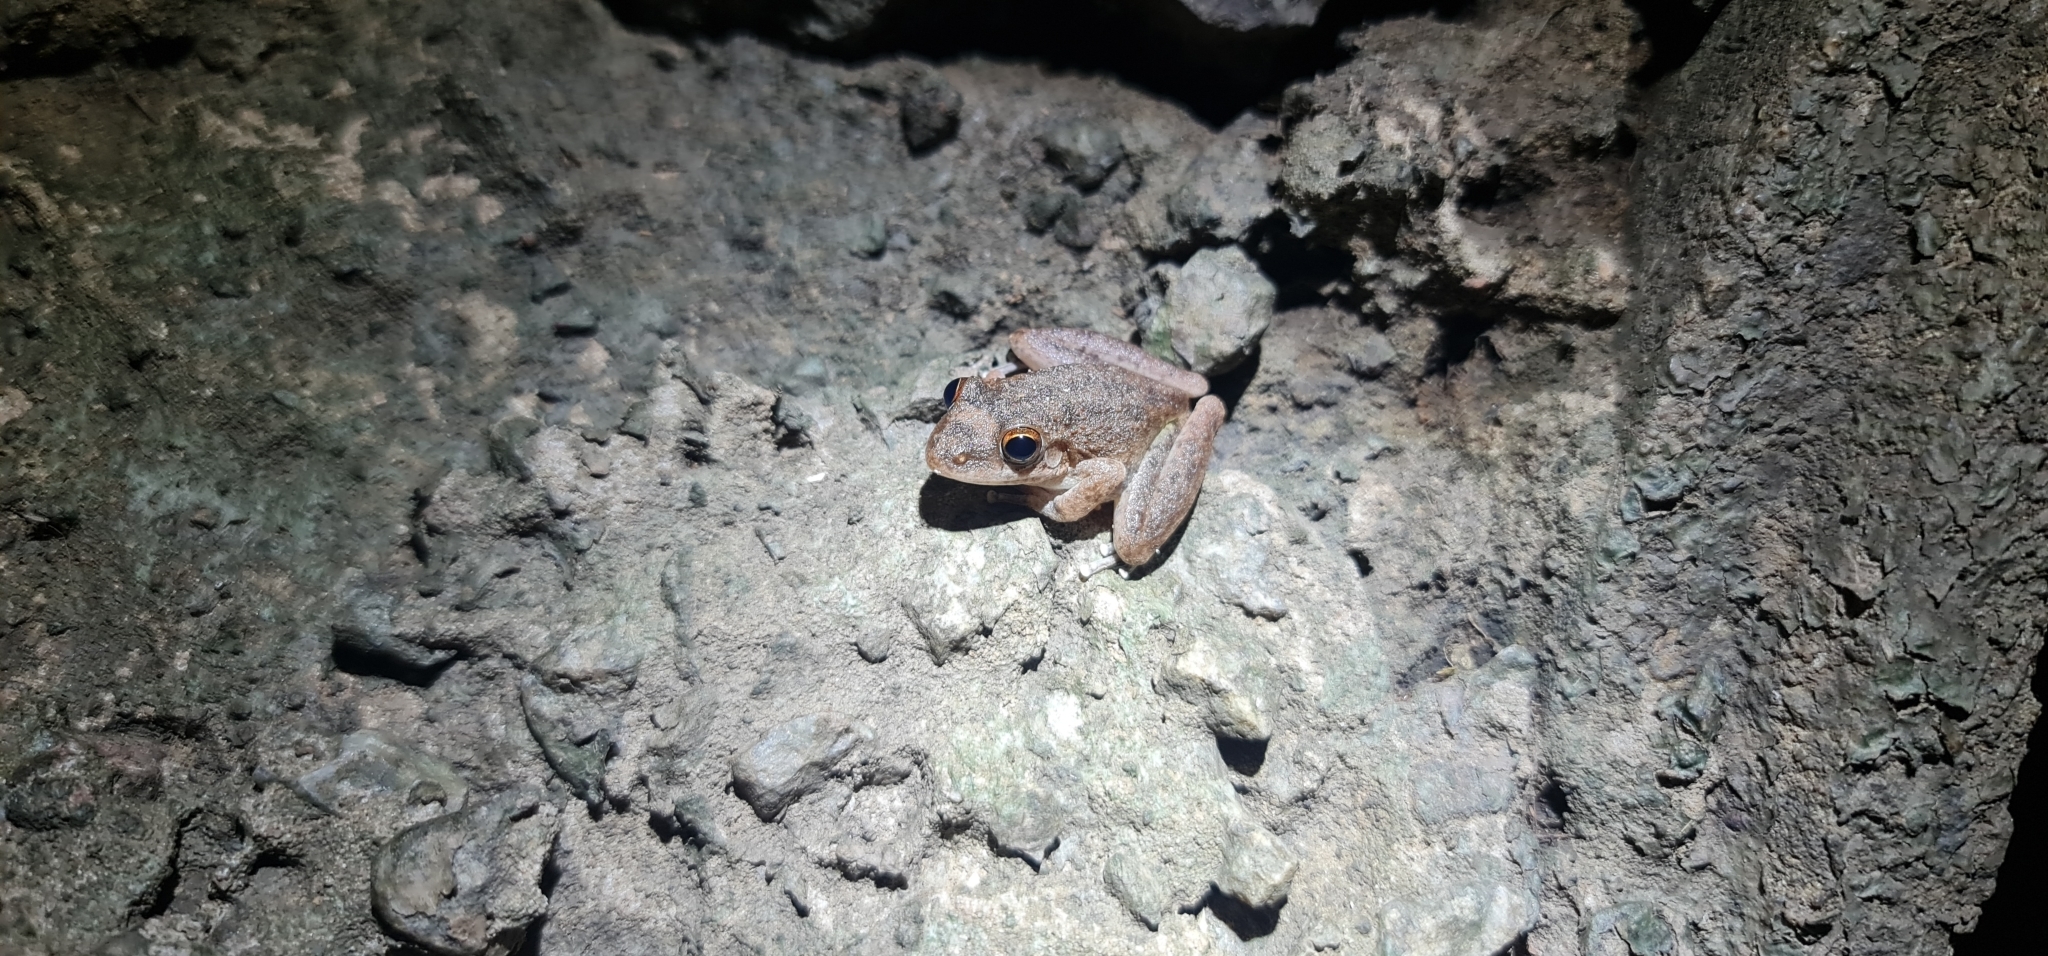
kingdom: Animalia
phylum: Chordata
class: Amphibia
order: Anura
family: Pelodryadidae
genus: Litoria
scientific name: Litoria coplandi
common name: Copland’s rock frog
